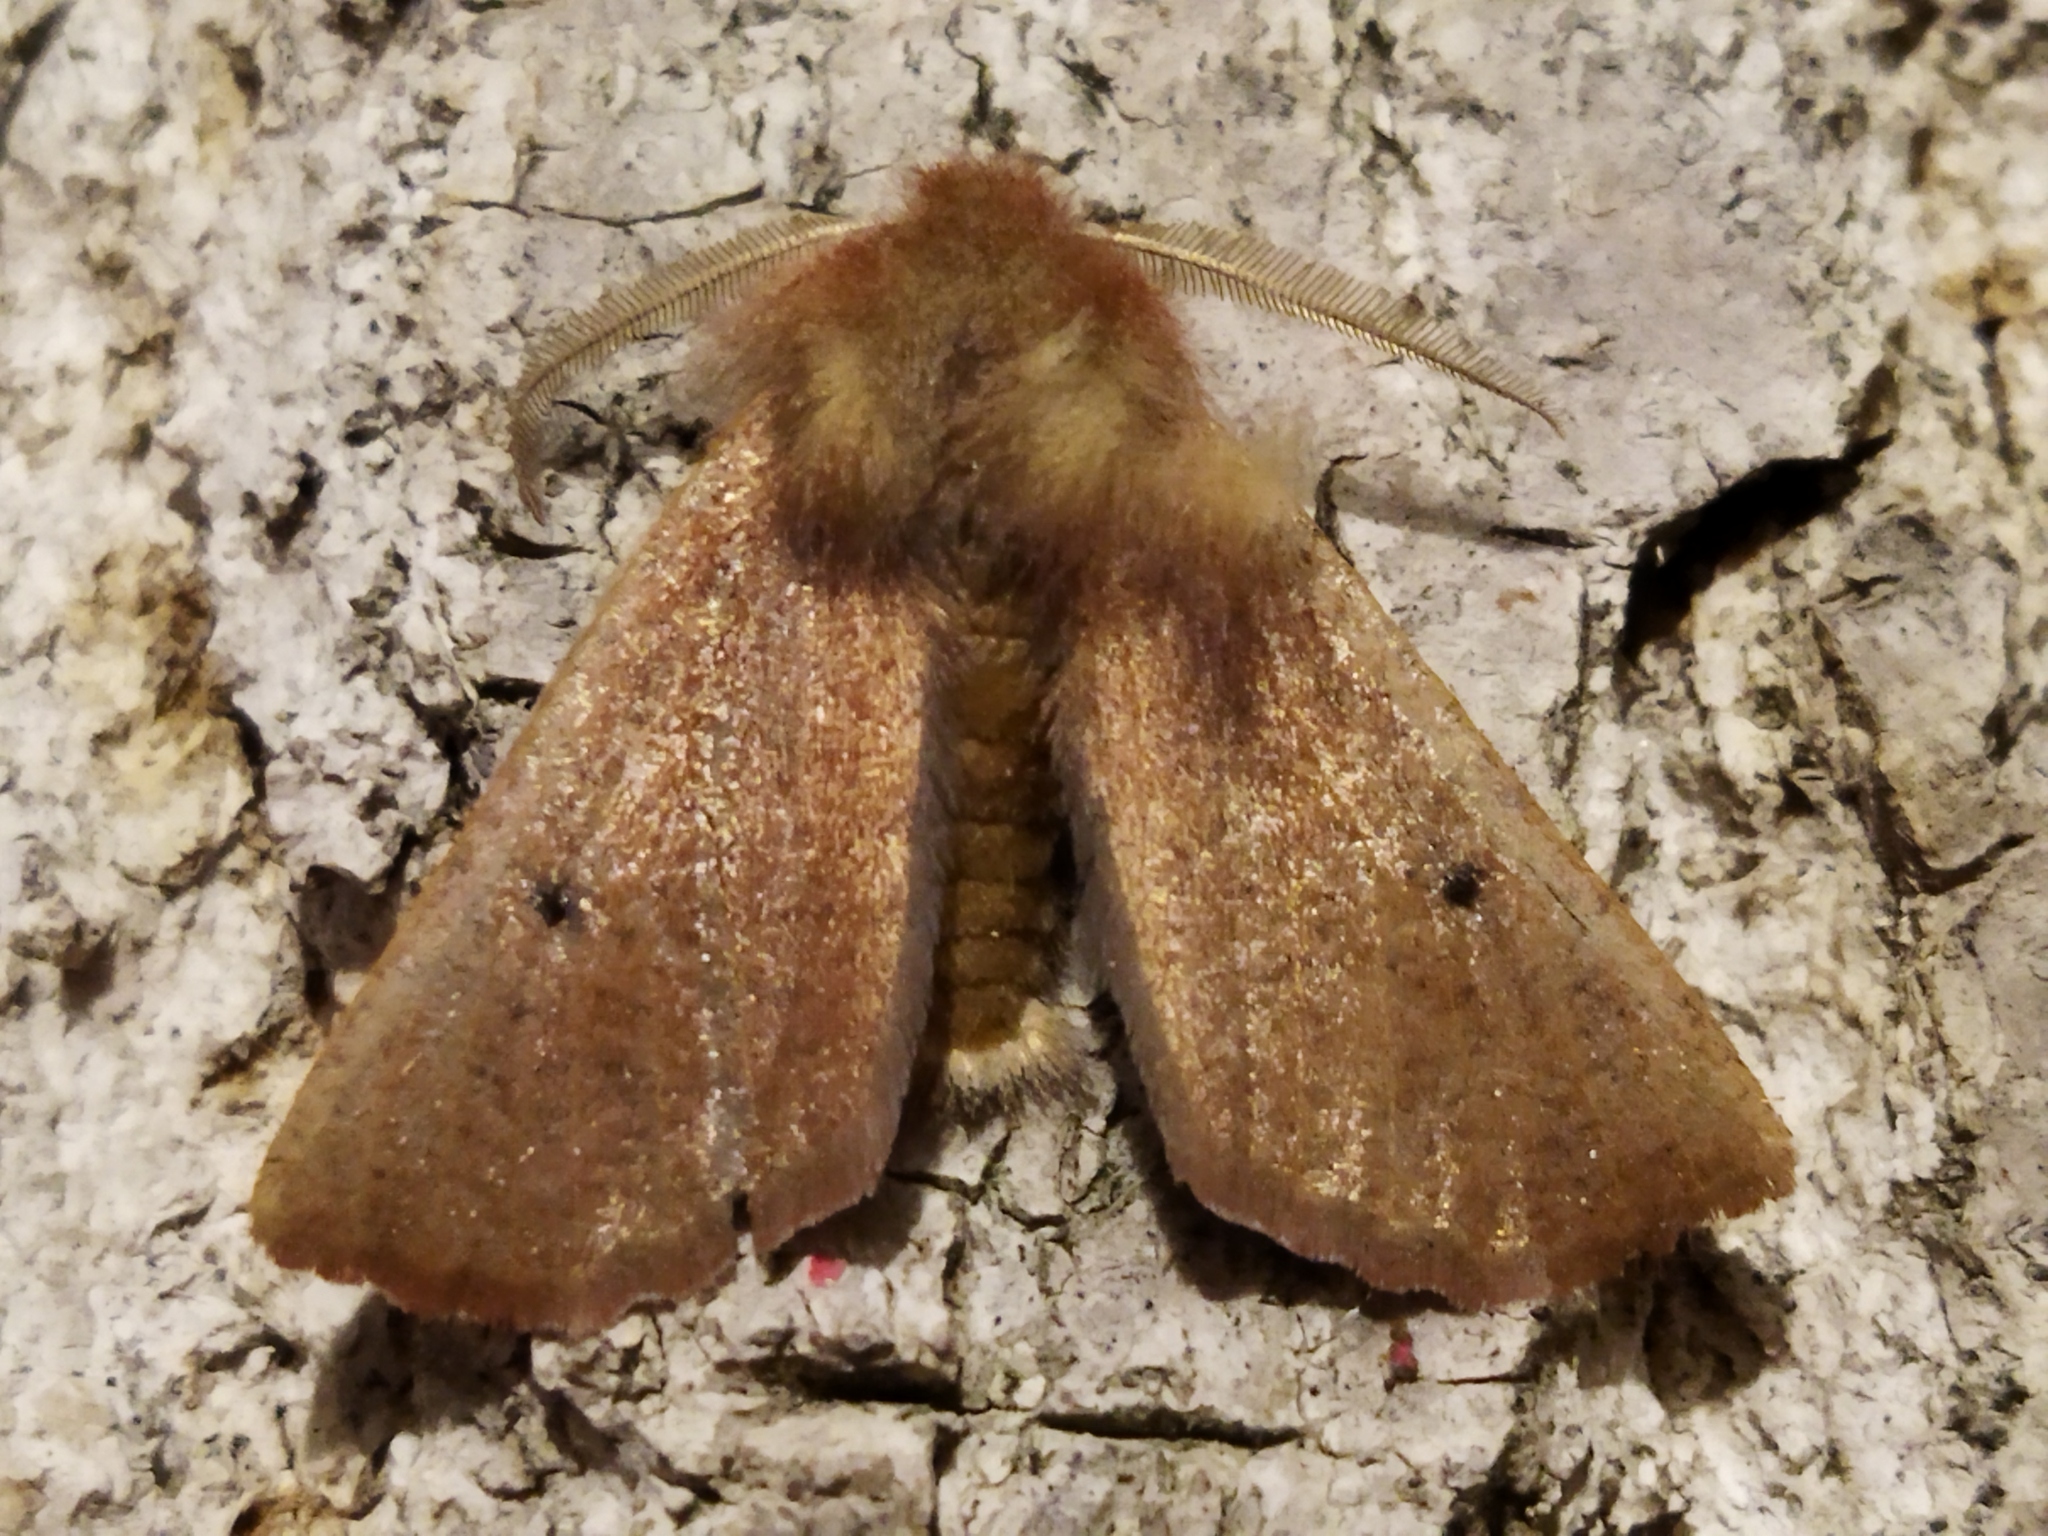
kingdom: Animalia
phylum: Arthropoda
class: Insecta
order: Lepidoptera
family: Geometridae
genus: Dasycorsa
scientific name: Dasycorsa modesta
